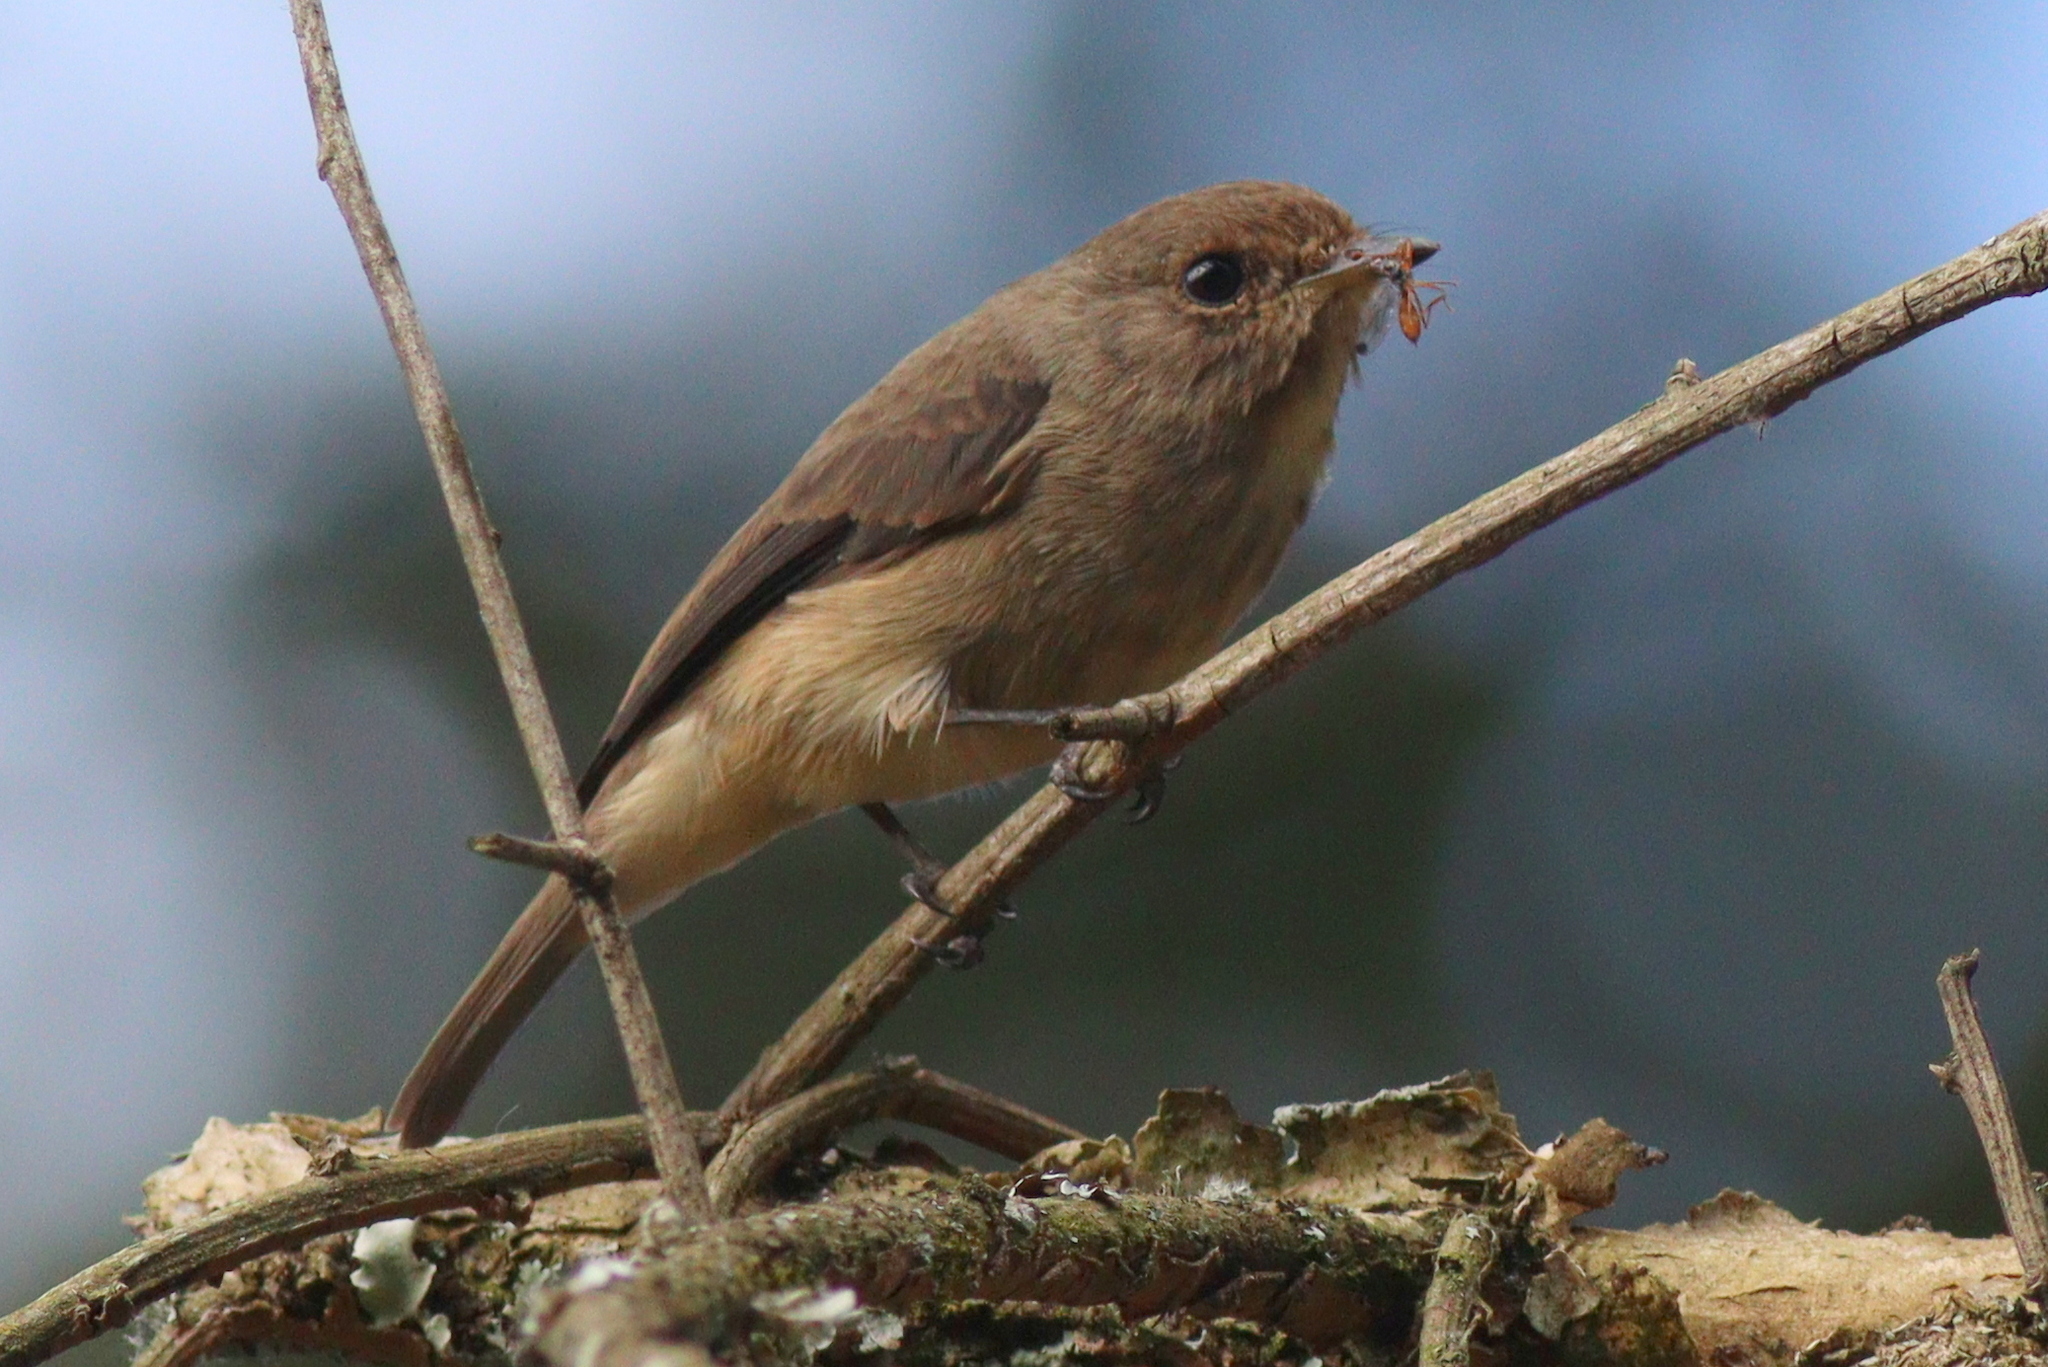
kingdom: Animalia
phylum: Chordata
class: Aves
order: Passeriformes
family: Muscicapidae
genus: Muscicapa
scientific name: Muscicapa adusta
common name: African dusky flycatcher
